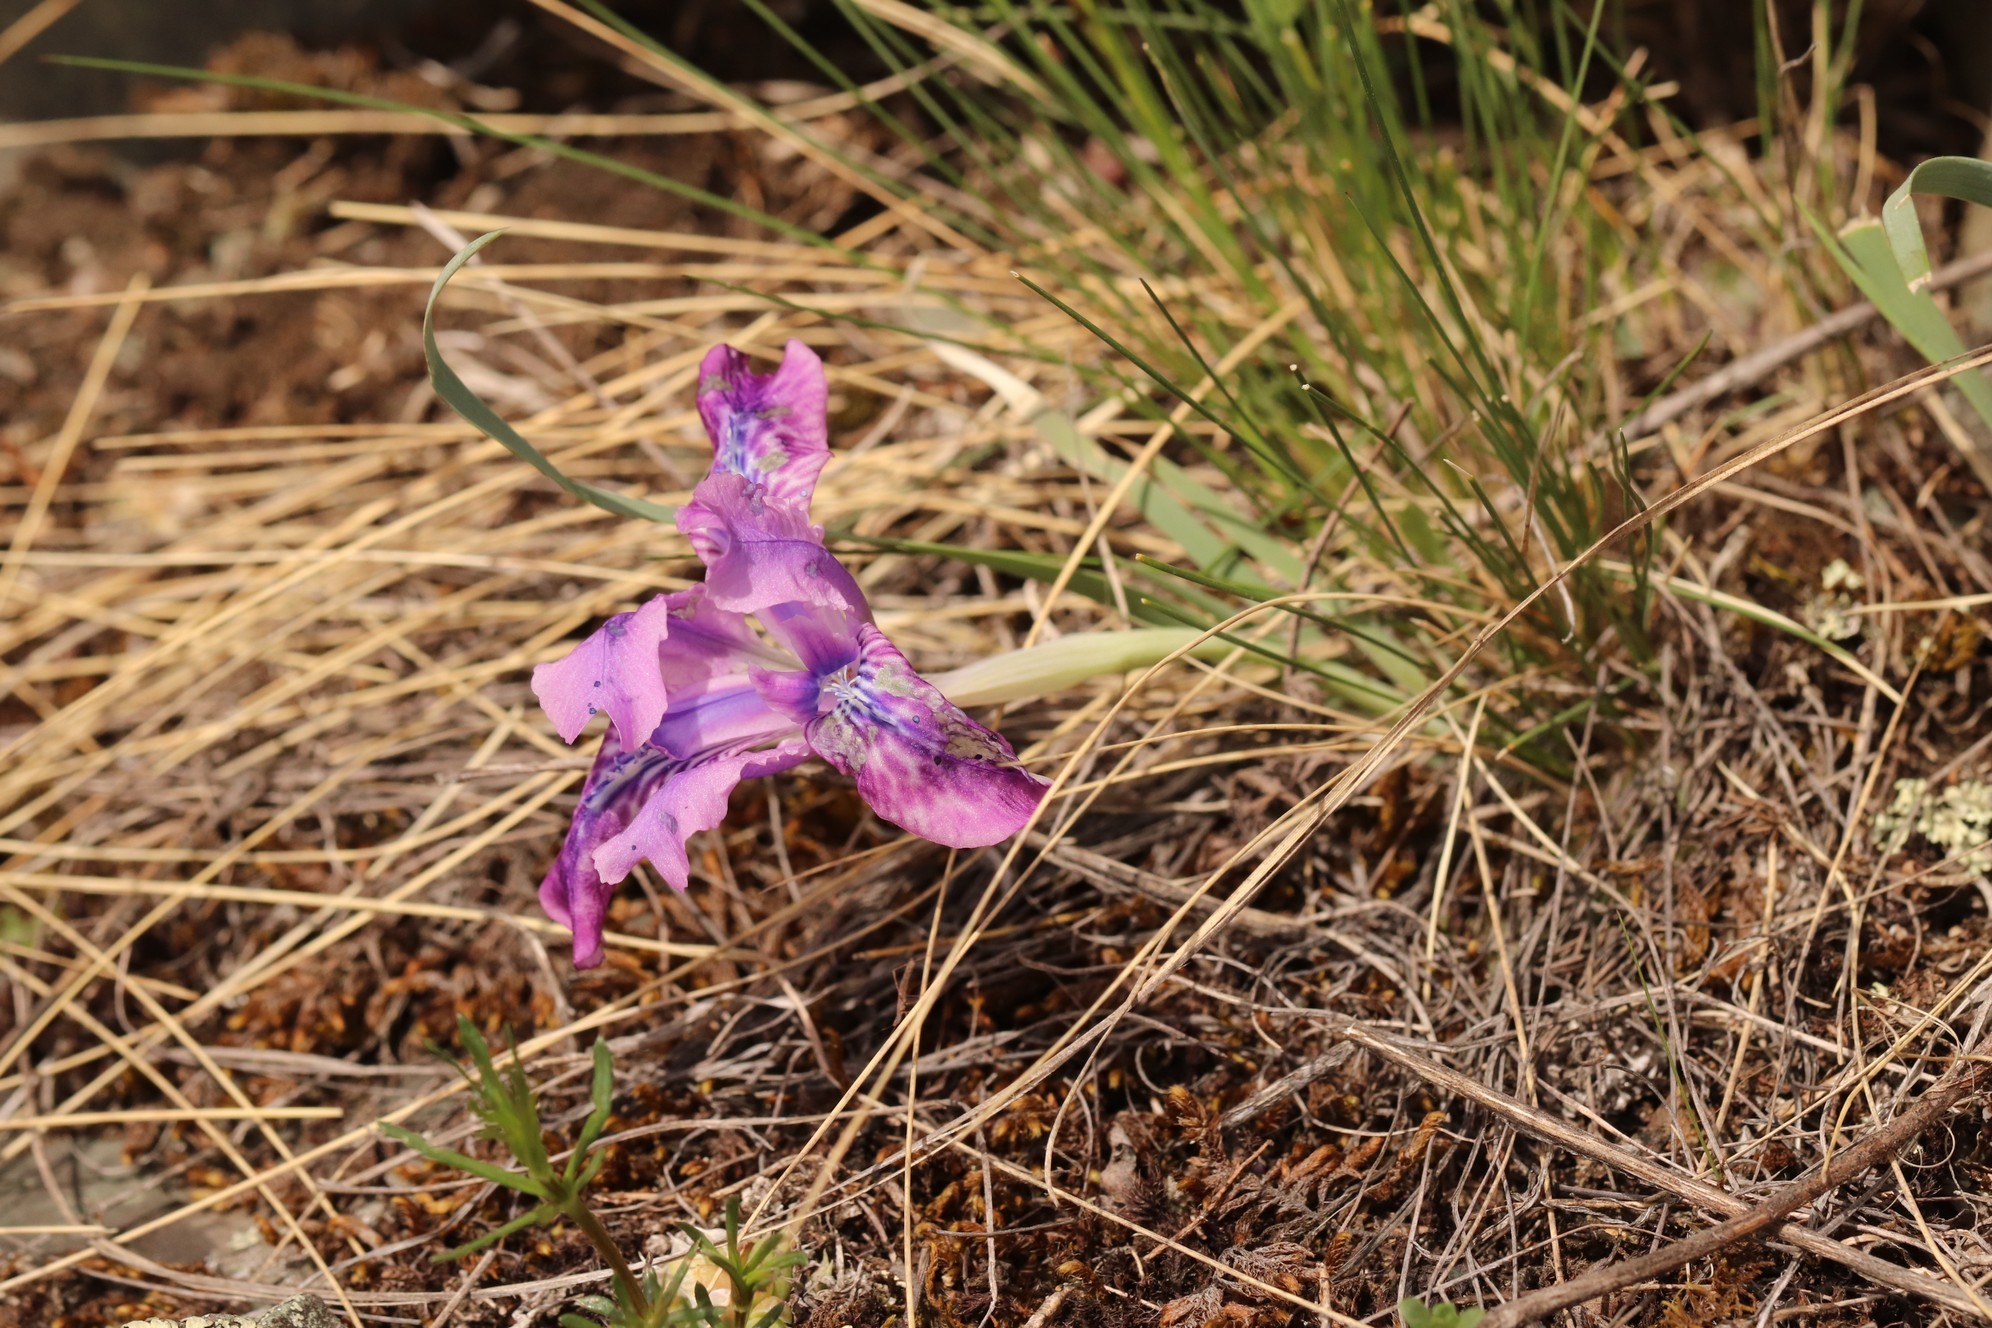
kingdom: Plantae
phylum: Tracheophyta
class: Liliopsida
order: Asparagales
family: Iridaceae
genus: Iris
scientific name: Iris tigridia
